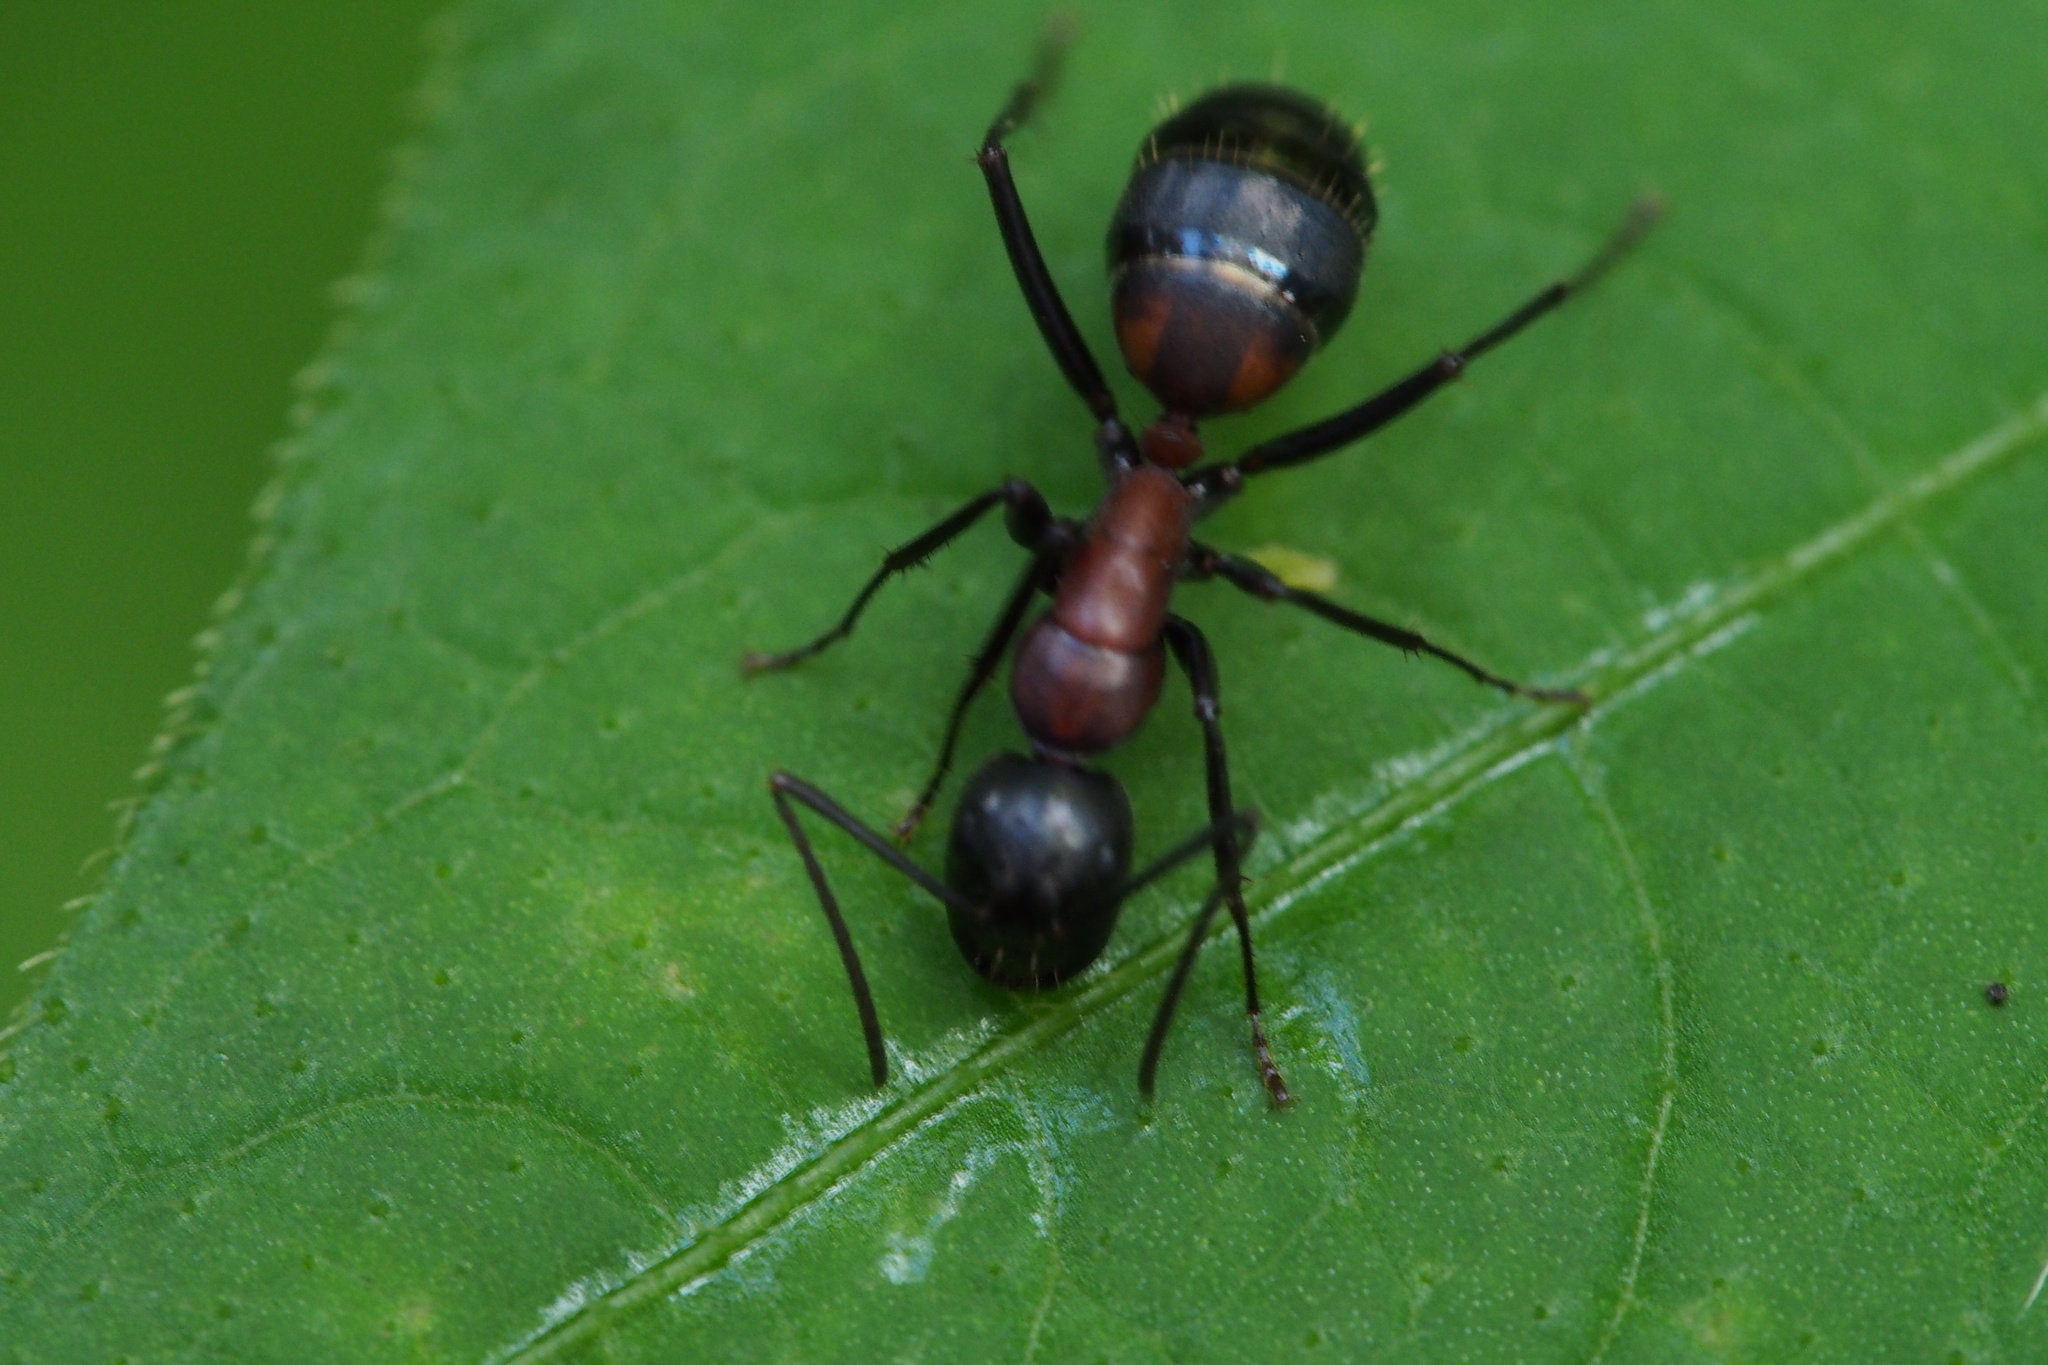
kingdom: Animalia
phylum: Arthropoda
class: Insecta
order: Hymenoptera
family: Formicidae
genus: Camponotus
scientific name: Camponotus obscuripes
